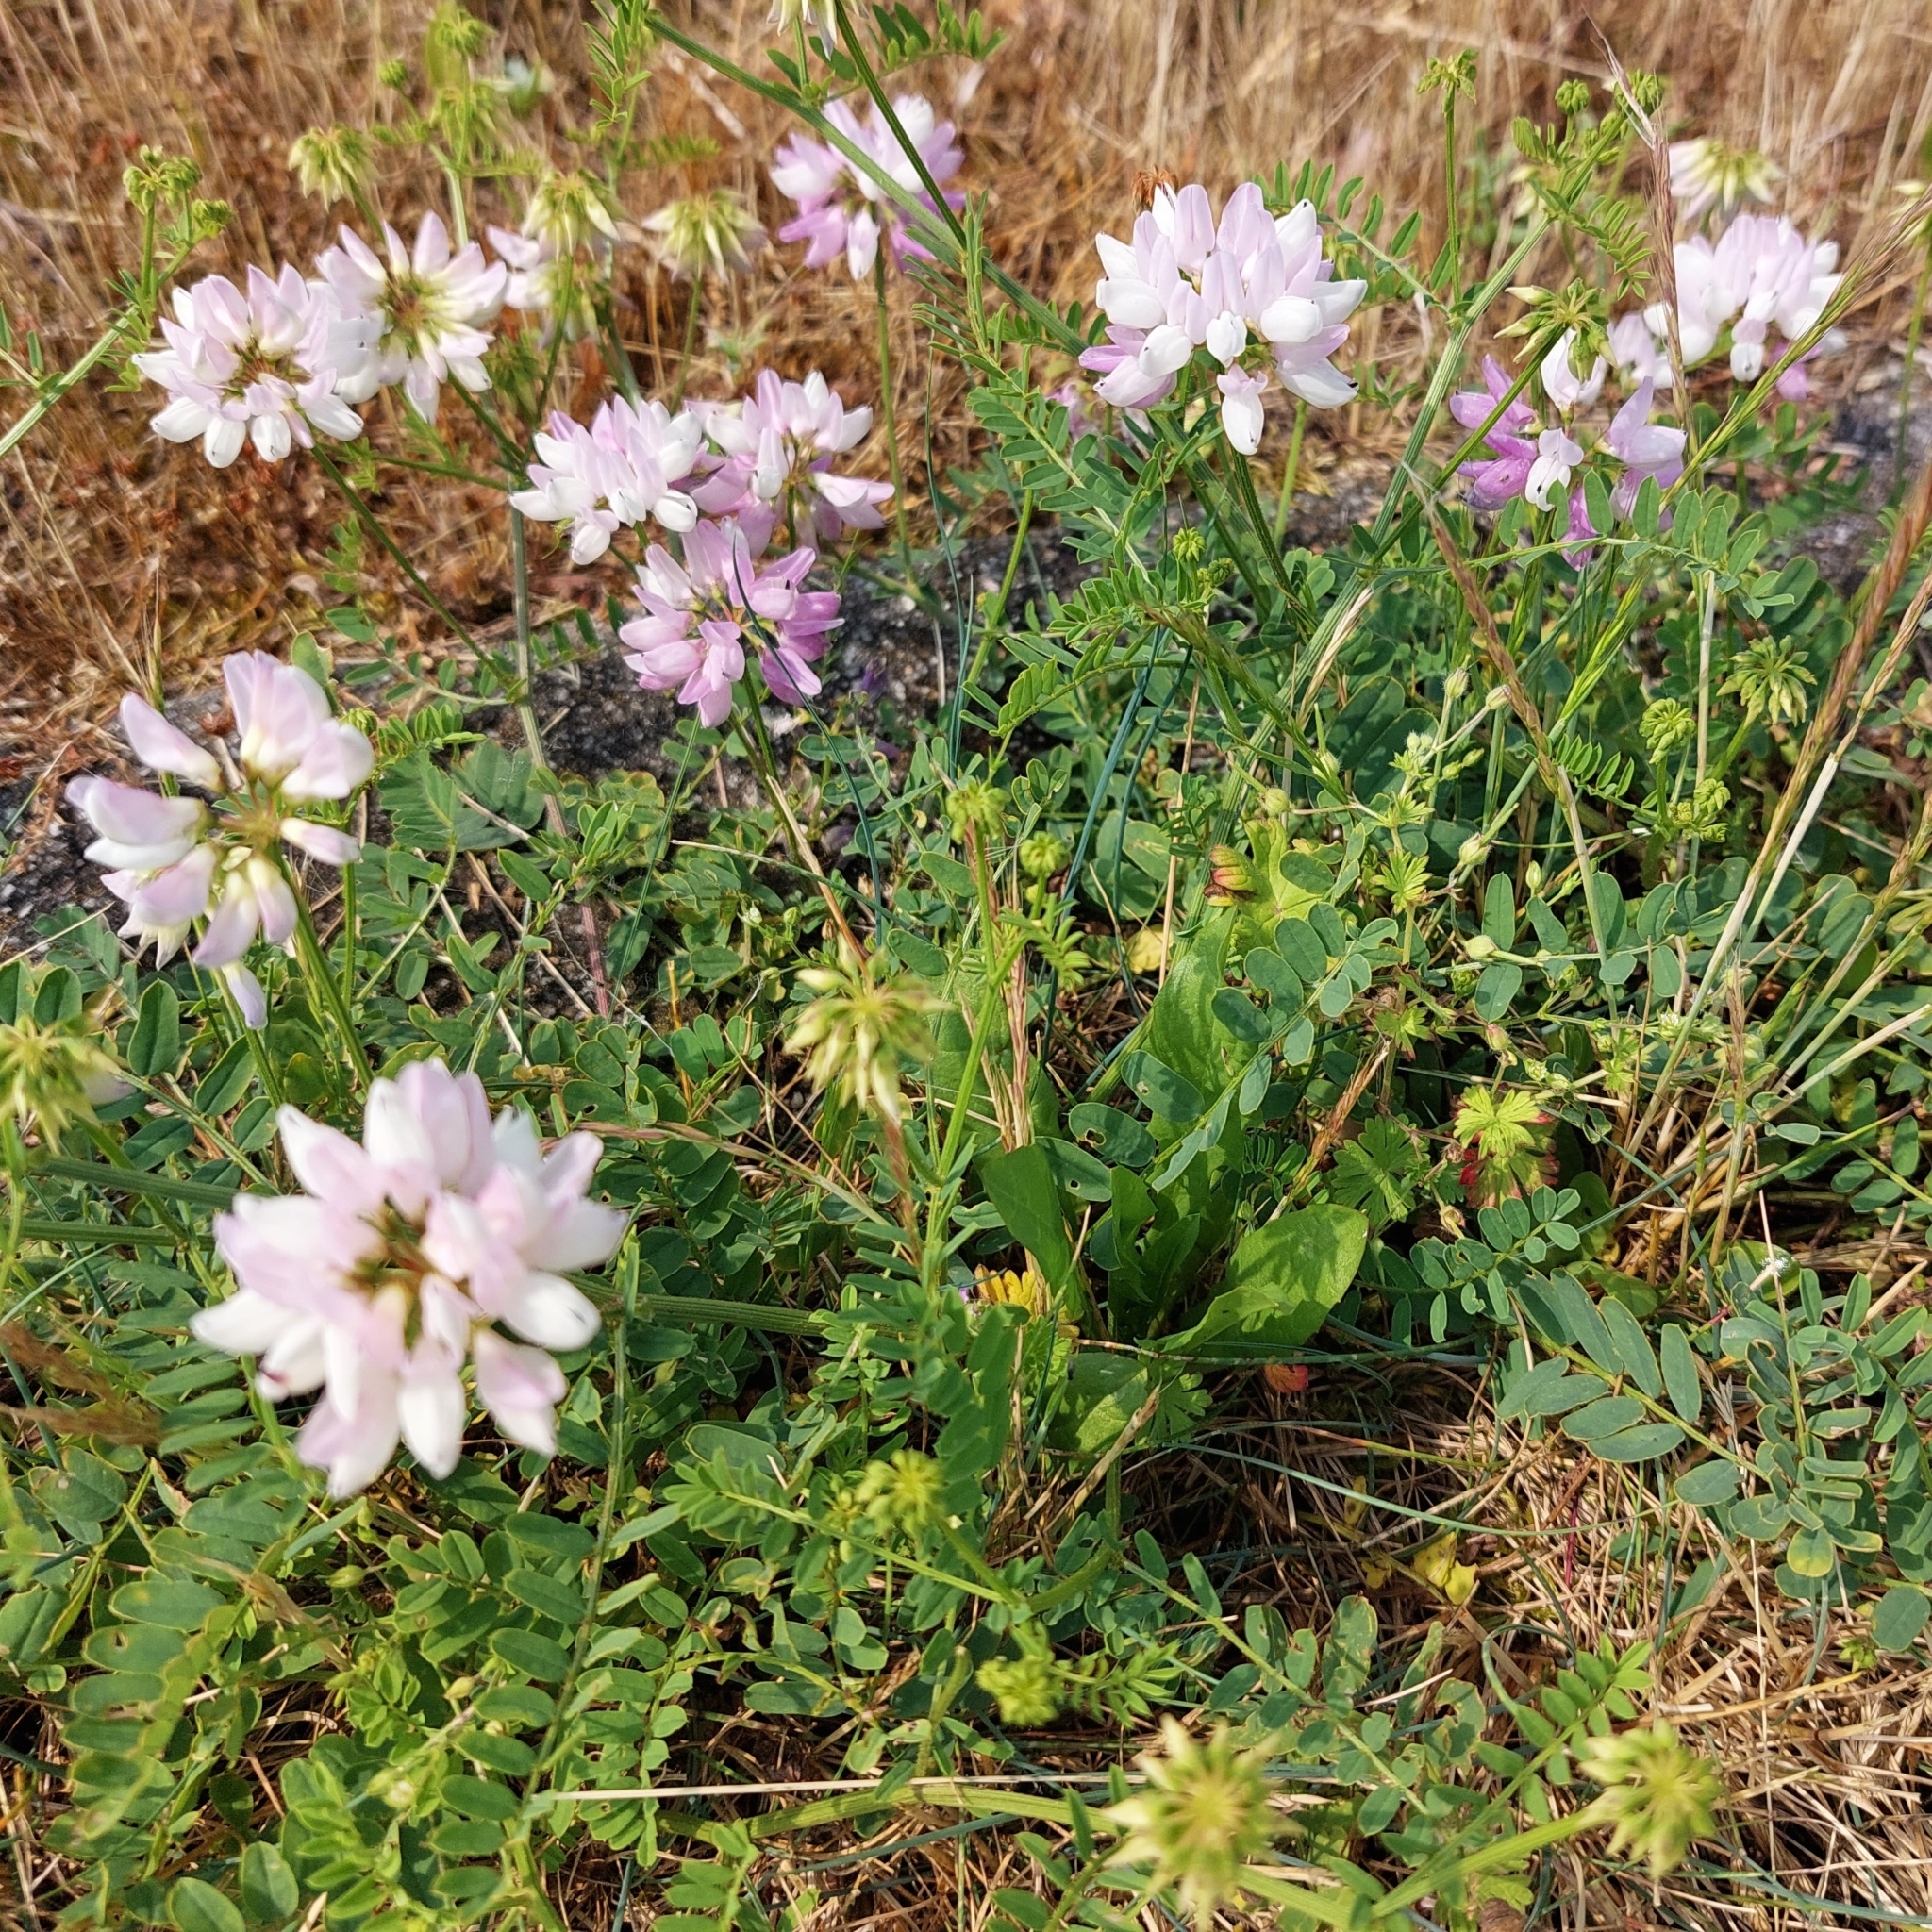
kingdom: Plantae
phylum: Tracheophyta
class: Magnoliopsida
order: Fabales
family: Fabaceae
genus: Coronilla
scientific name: Coronilla varia
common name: Crownvetch
